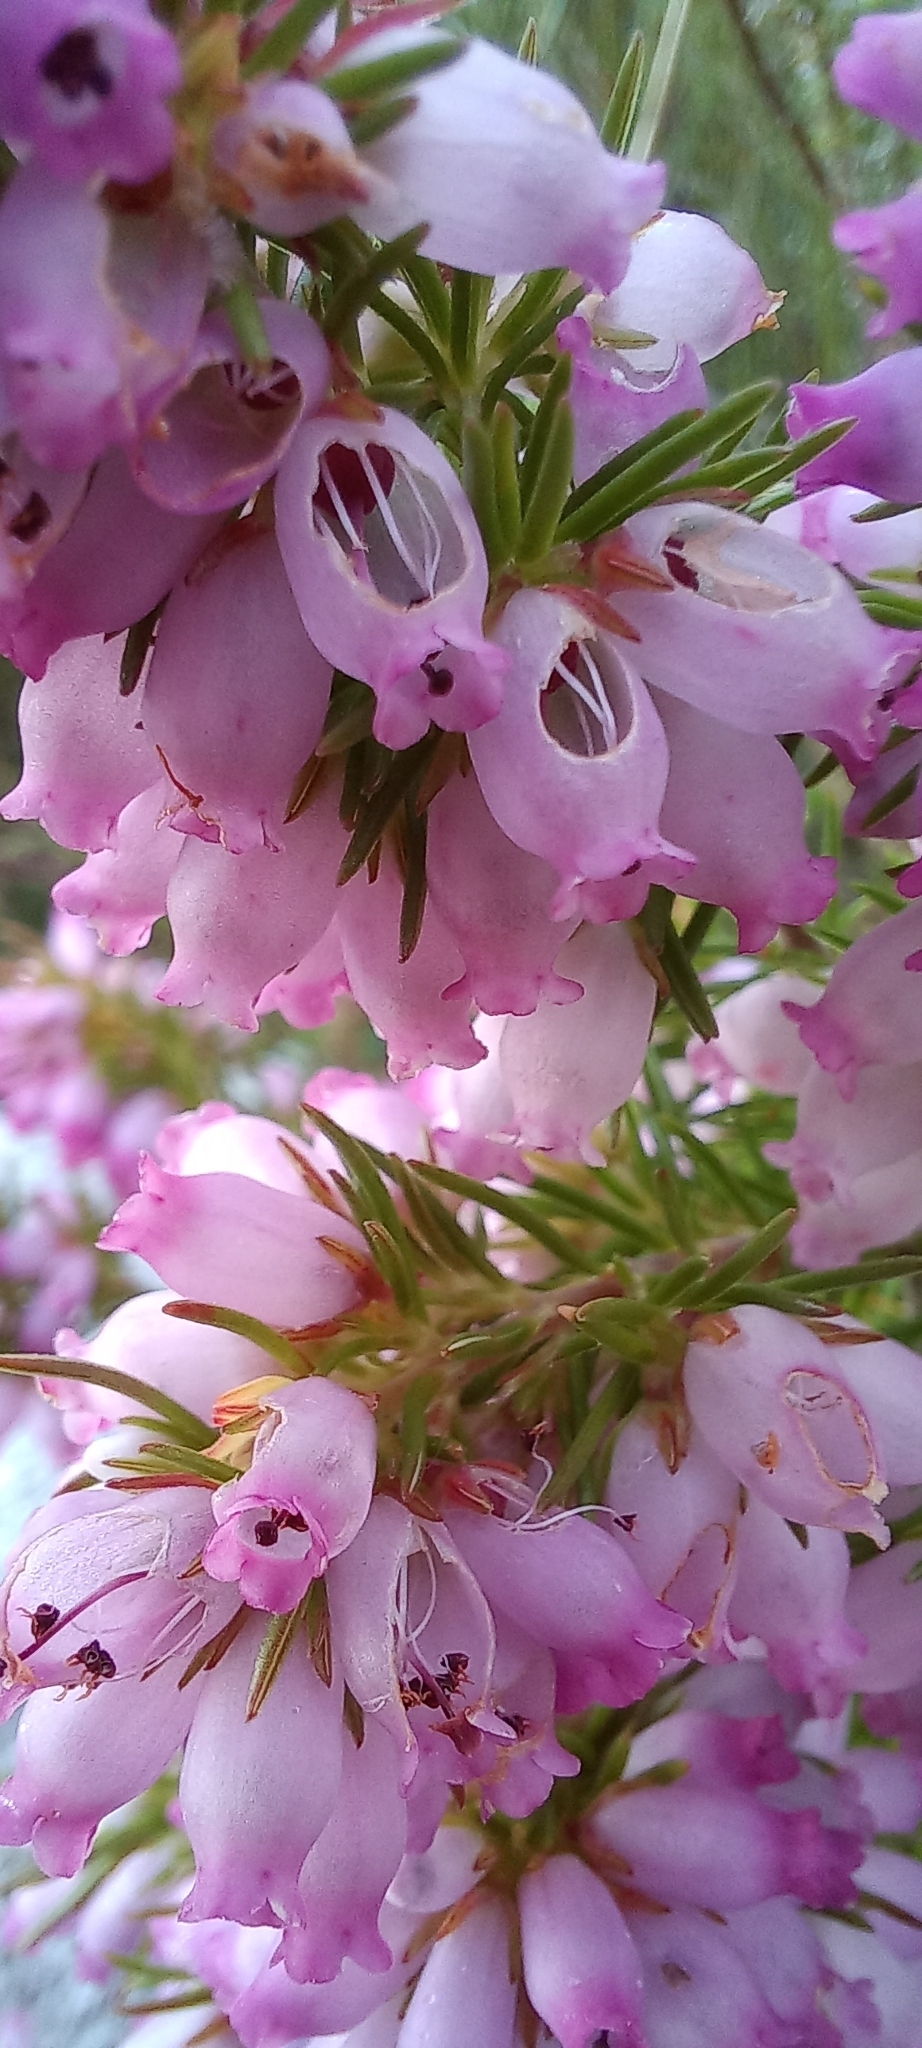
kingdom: Plantae
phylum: Tracheophyta
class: Magnoliopsida
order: Ericales
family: Ericaceae
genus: Erica
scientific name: Erica tenella
